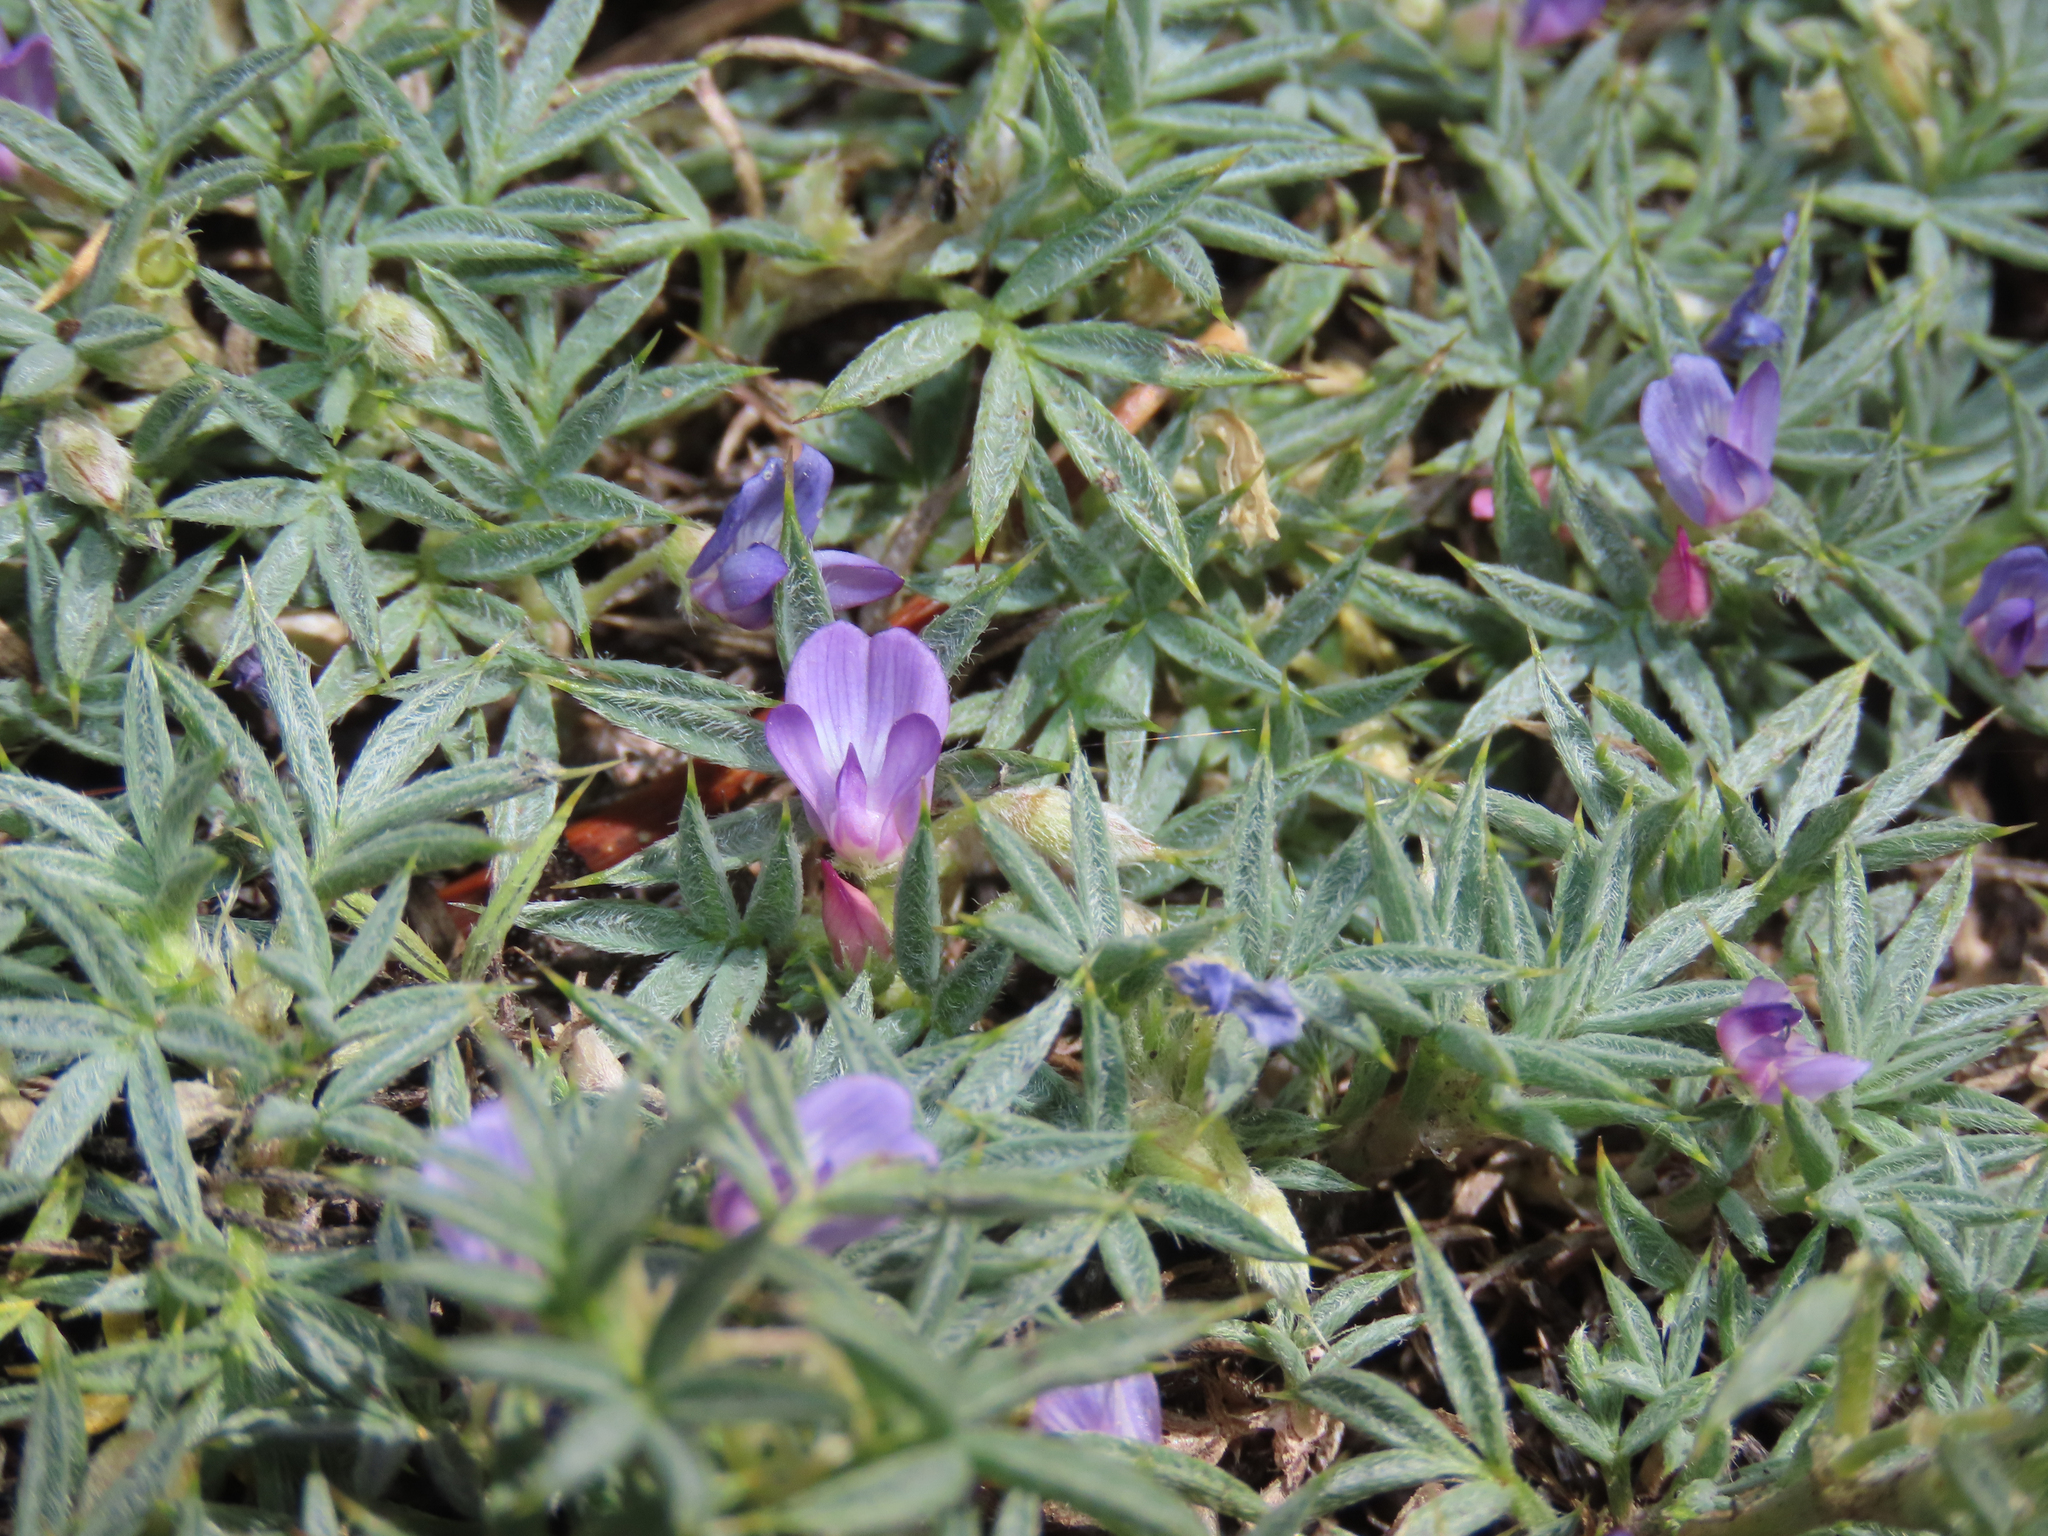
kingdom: Plantae
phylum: Tracheophyta
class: Magnoliopsida
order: Fabales
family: Fabaceae
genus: Astragalus
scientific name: Astragalus kentrophyta
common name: Prickly milk-vetch
